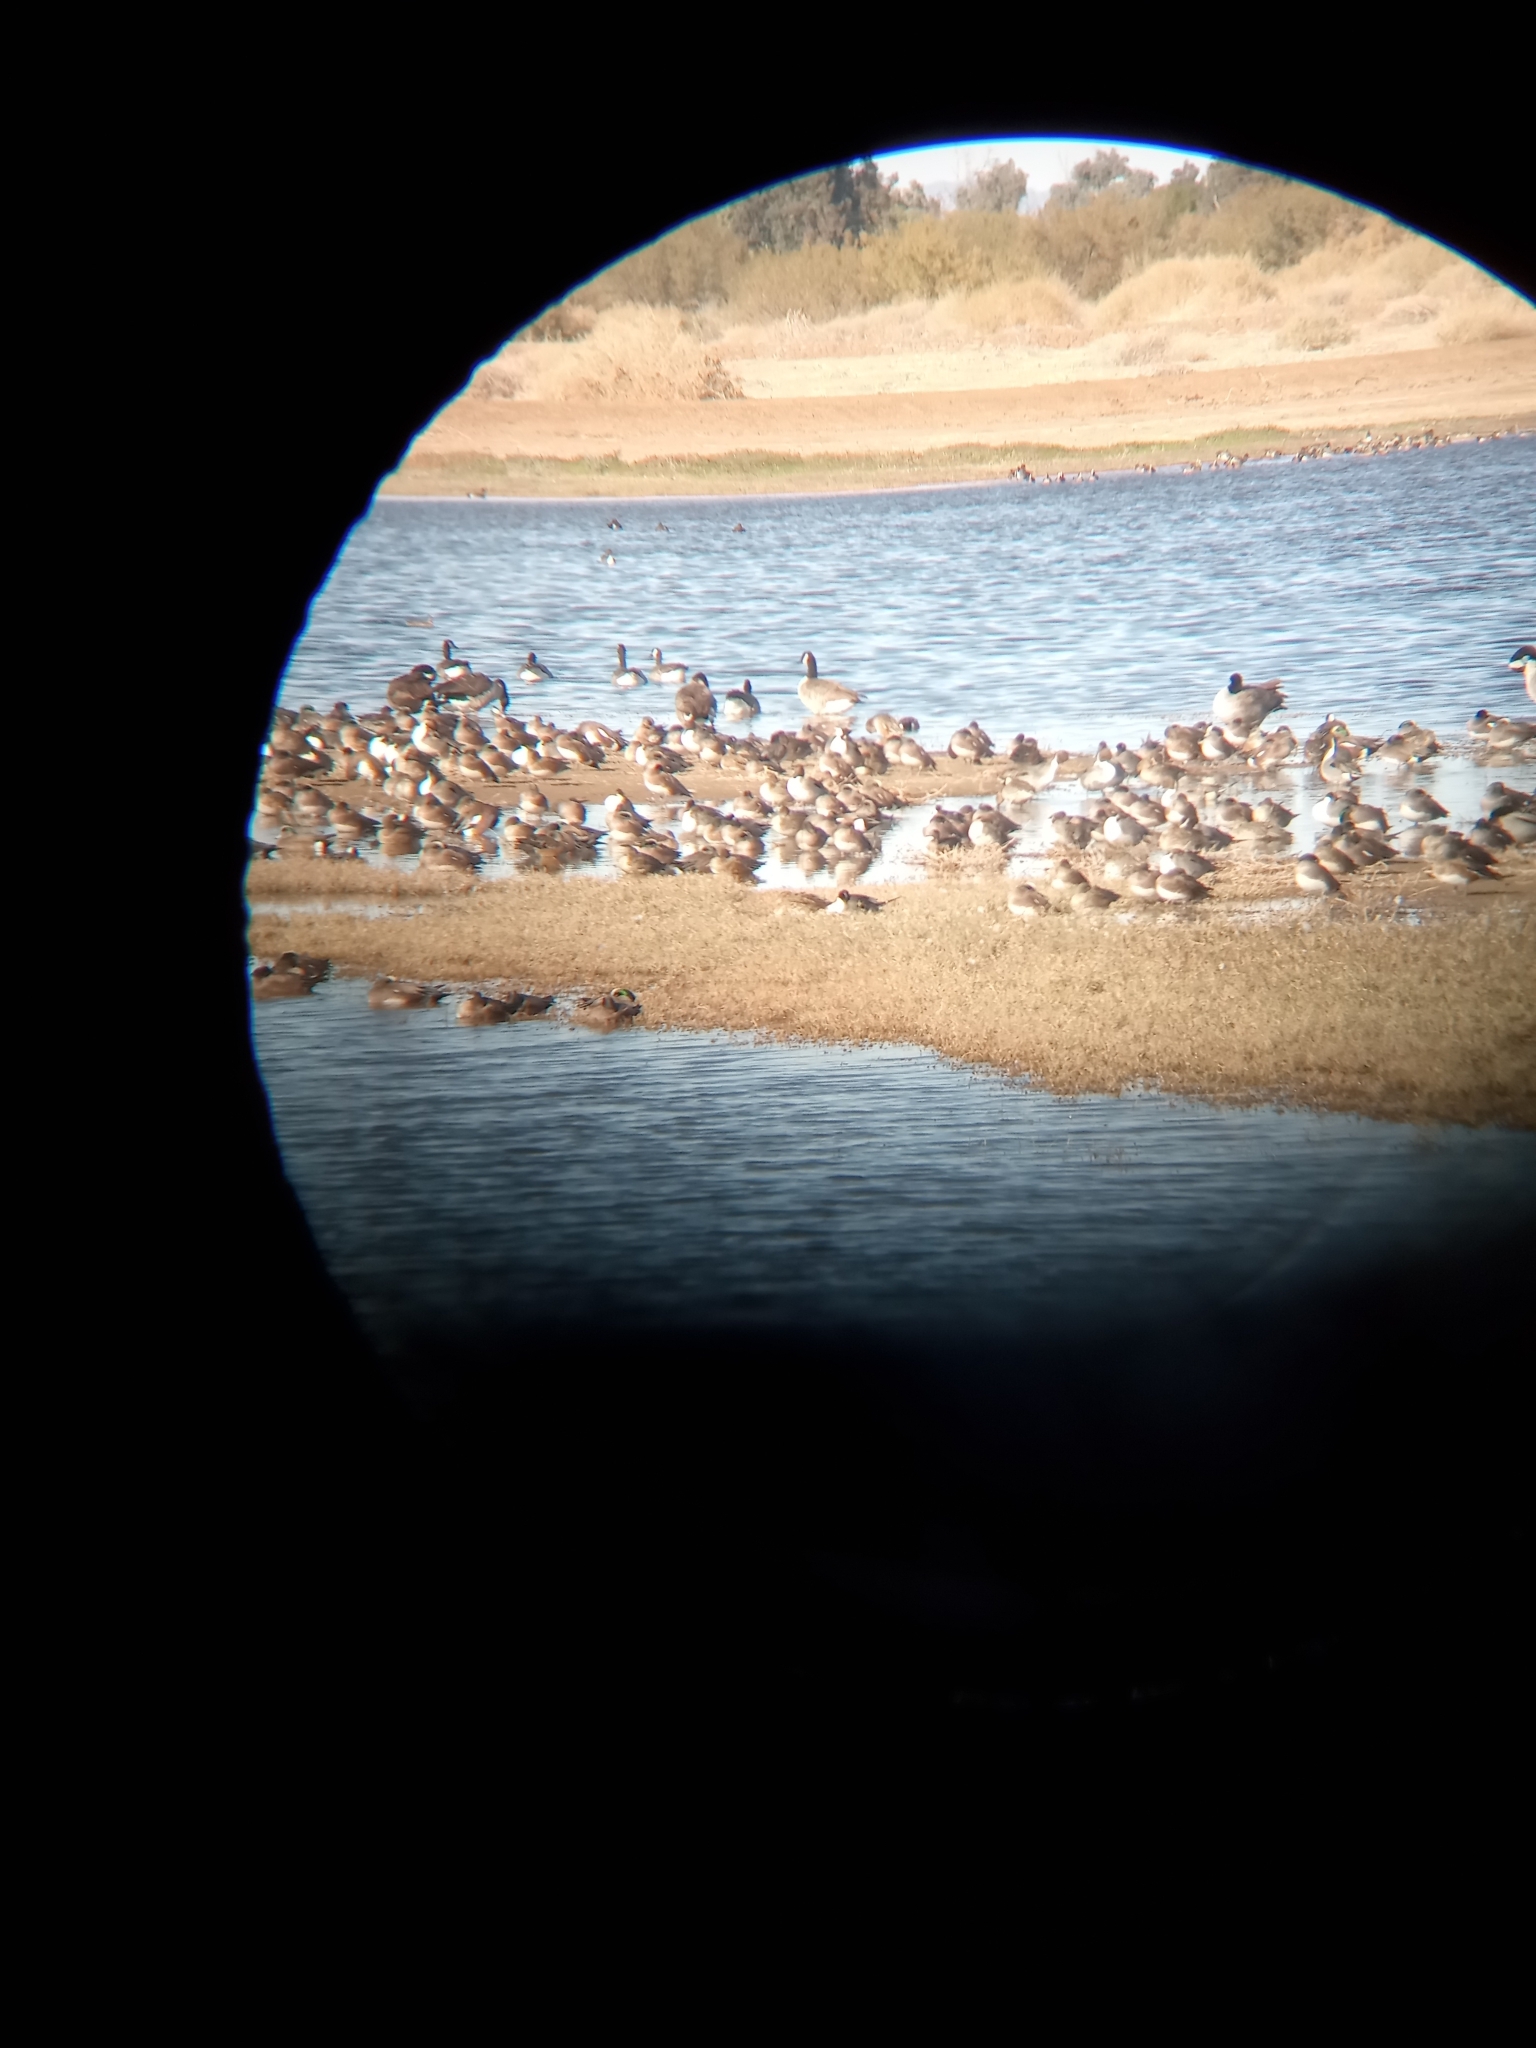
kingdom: Animalia
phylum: Chordata
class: Aves
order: Anseriformes
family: Anatidae
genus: Anas
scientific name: Anas acuta
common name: Northern pintail
